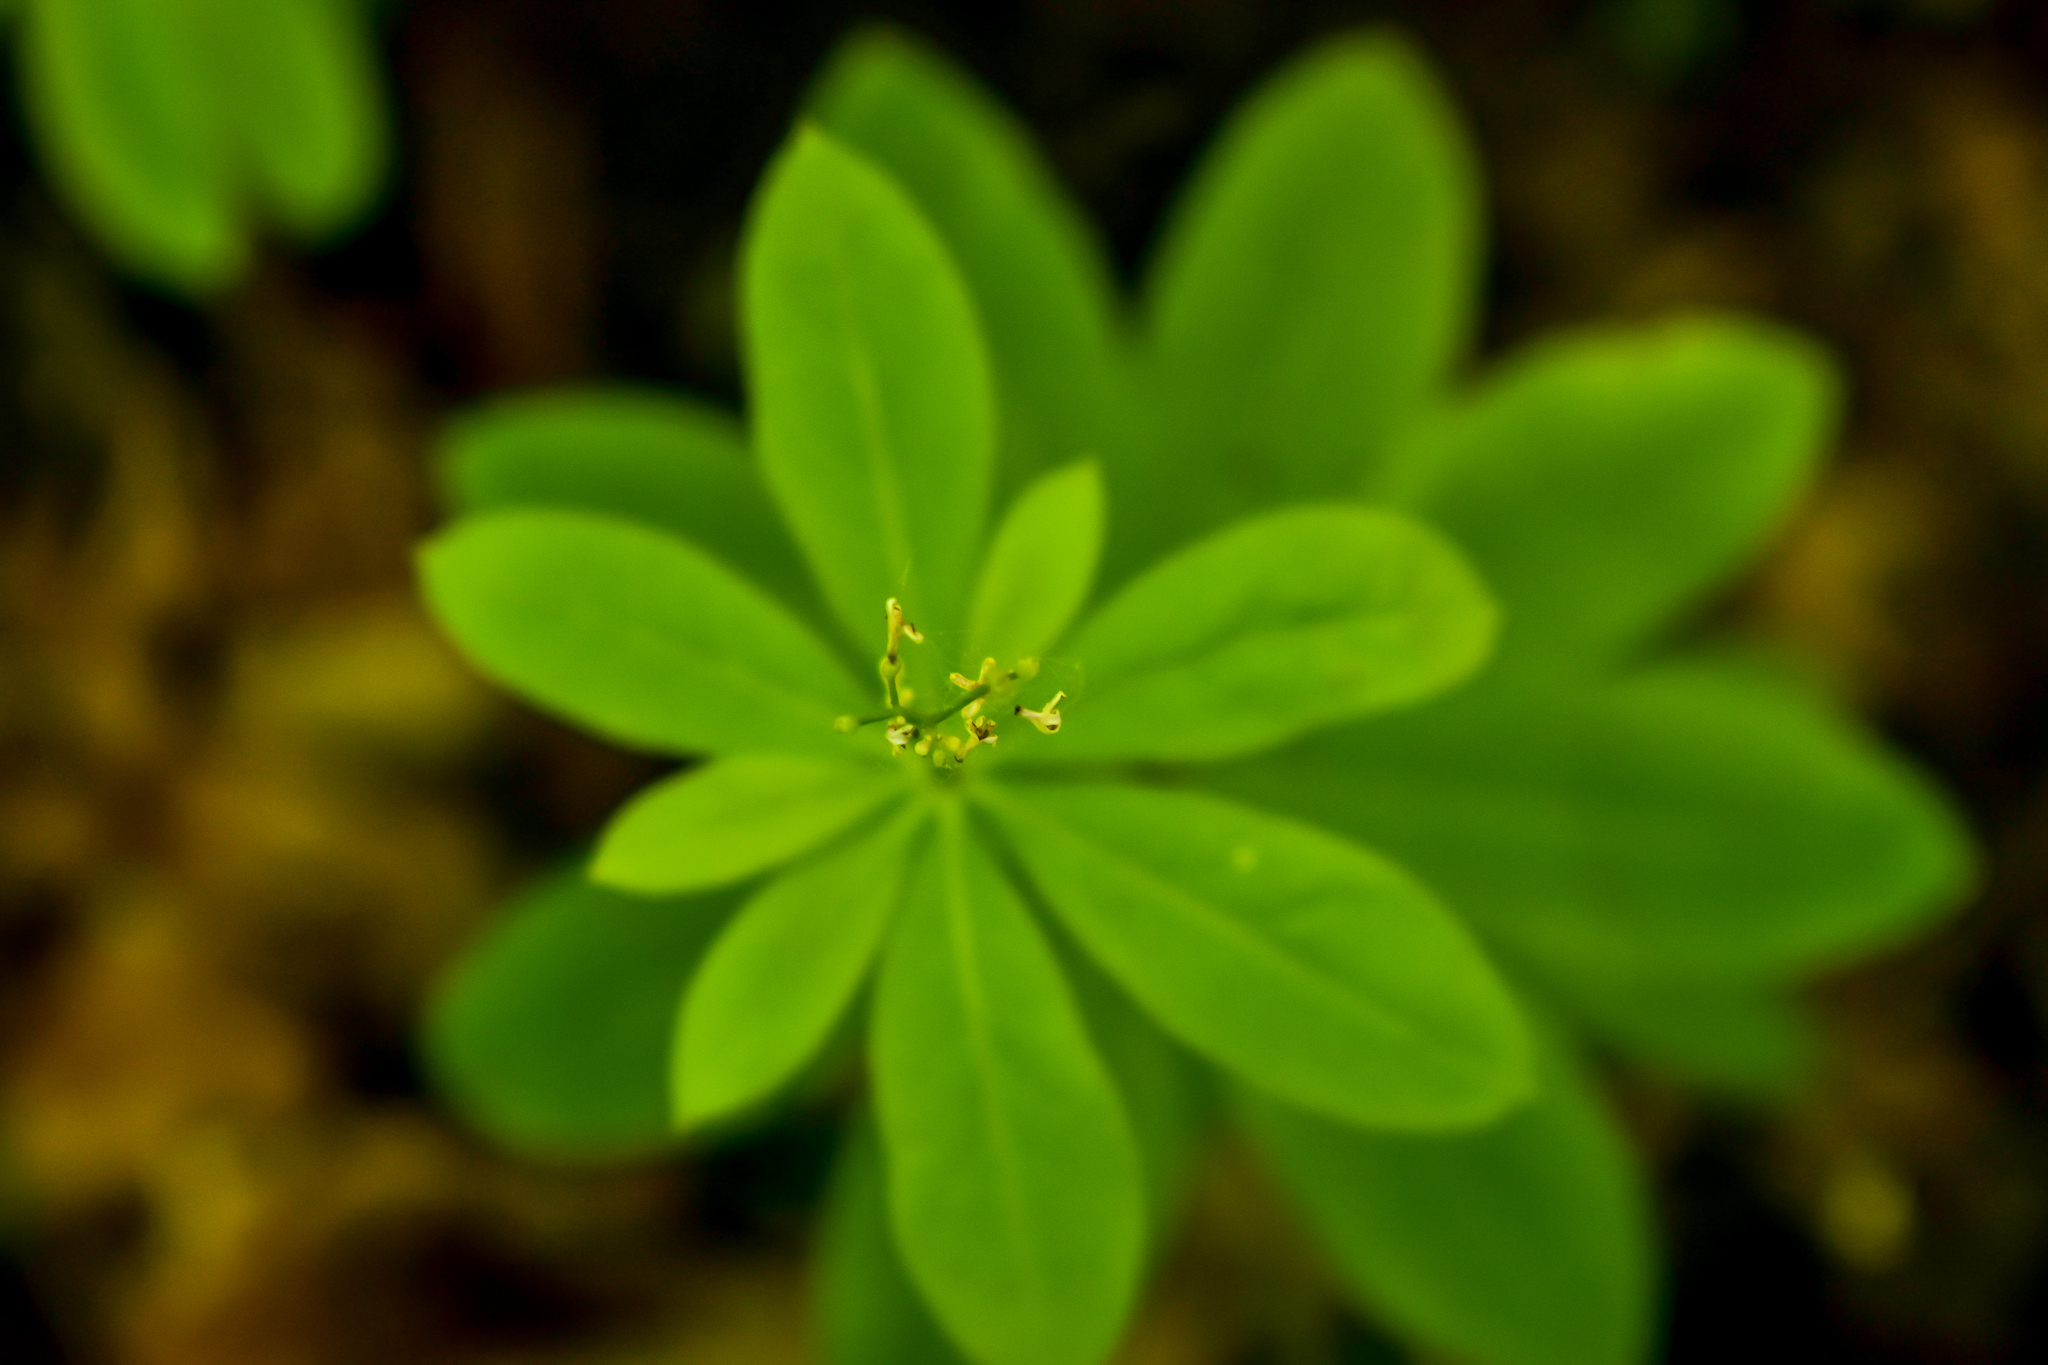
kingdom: Plantae
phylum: Tracheophyta
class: Magnoliopsida
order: Gentianales
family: Rubiaceae
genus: Galium
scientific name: Galium odoratum
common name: Sweet woodruff
